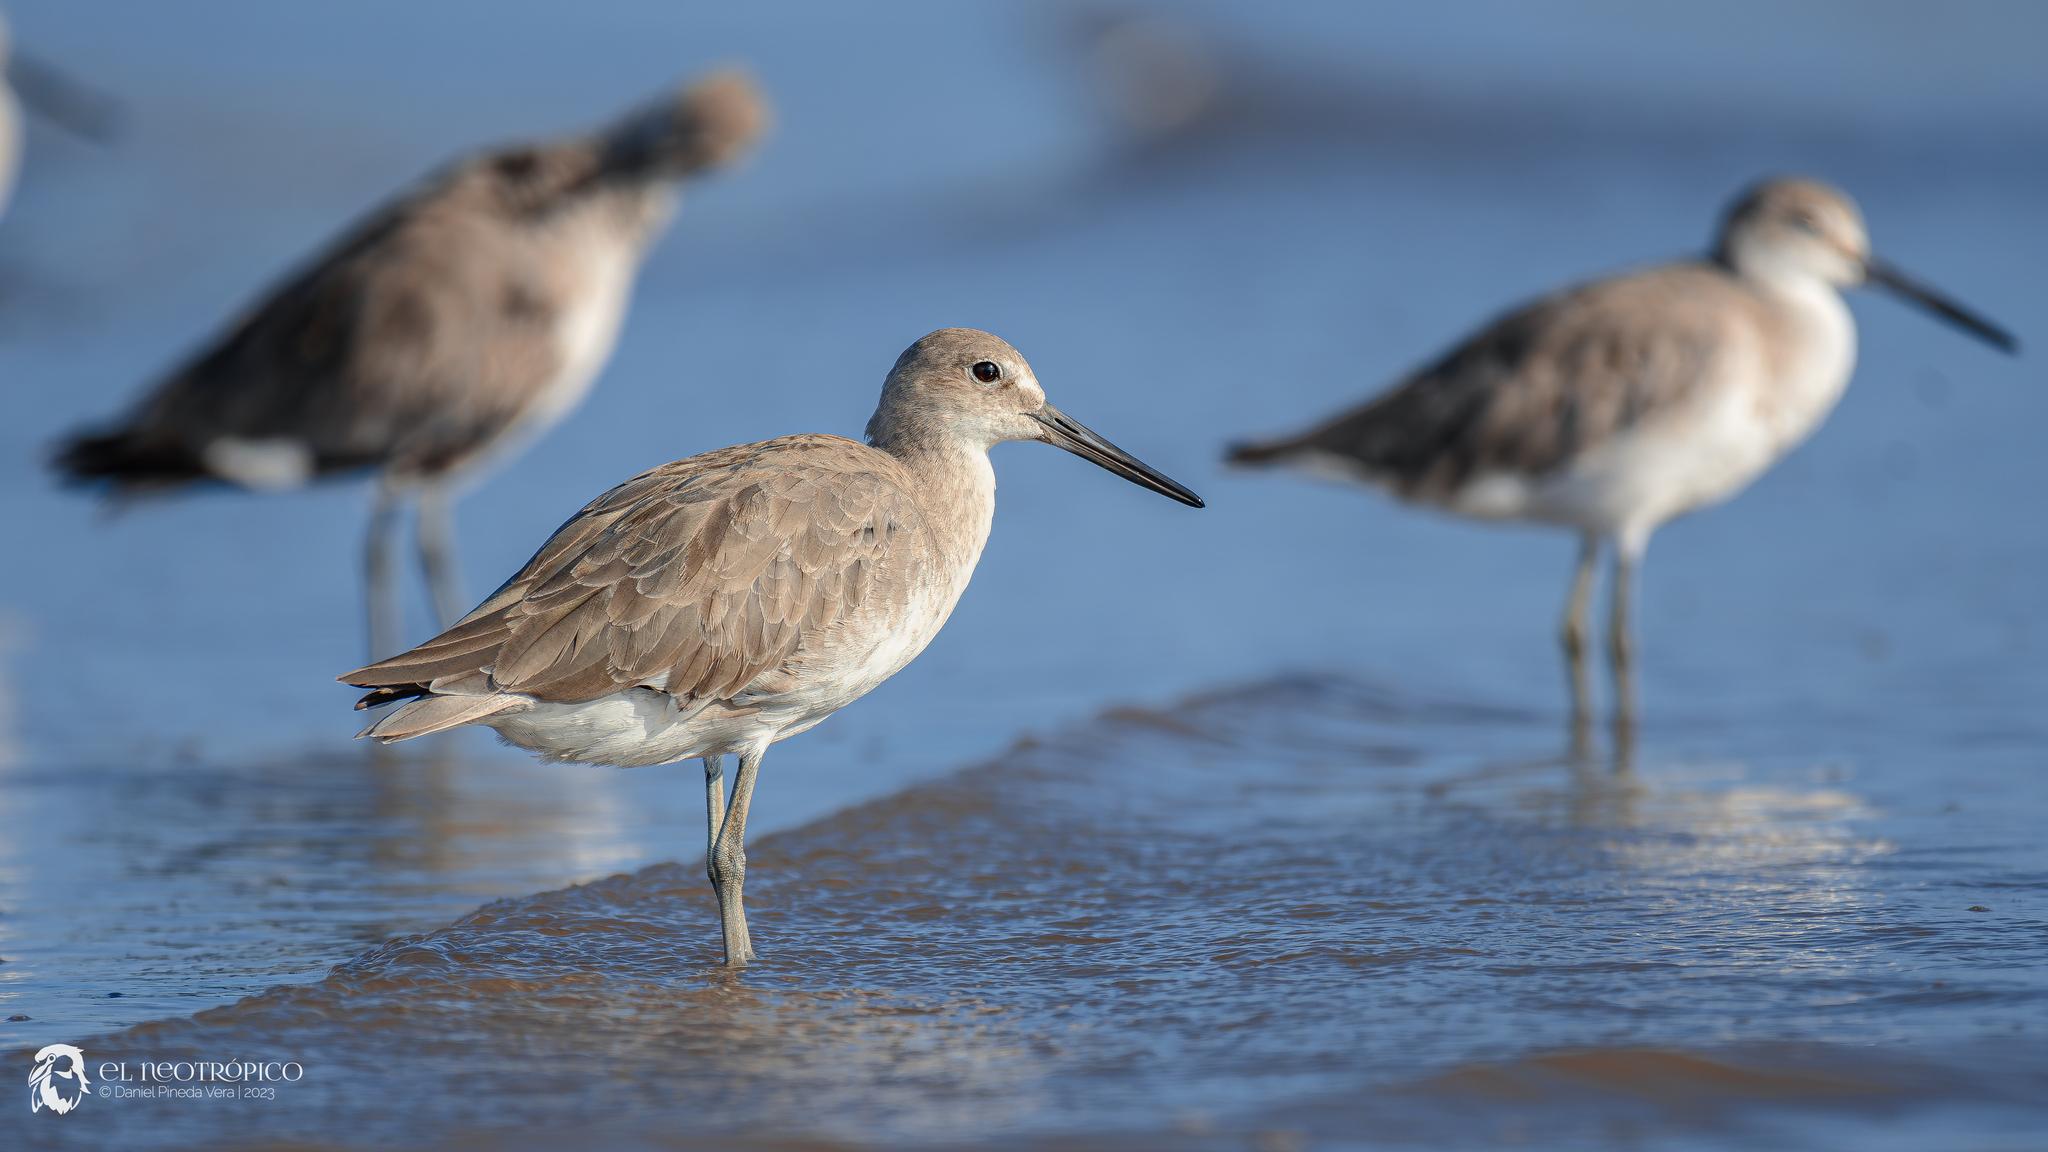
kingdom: Animalia
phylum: Chordata
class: Aves
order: Charadriiformes
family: Scolopacidae
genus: Tringa
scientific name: Tringa semipalmata
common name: Willet
